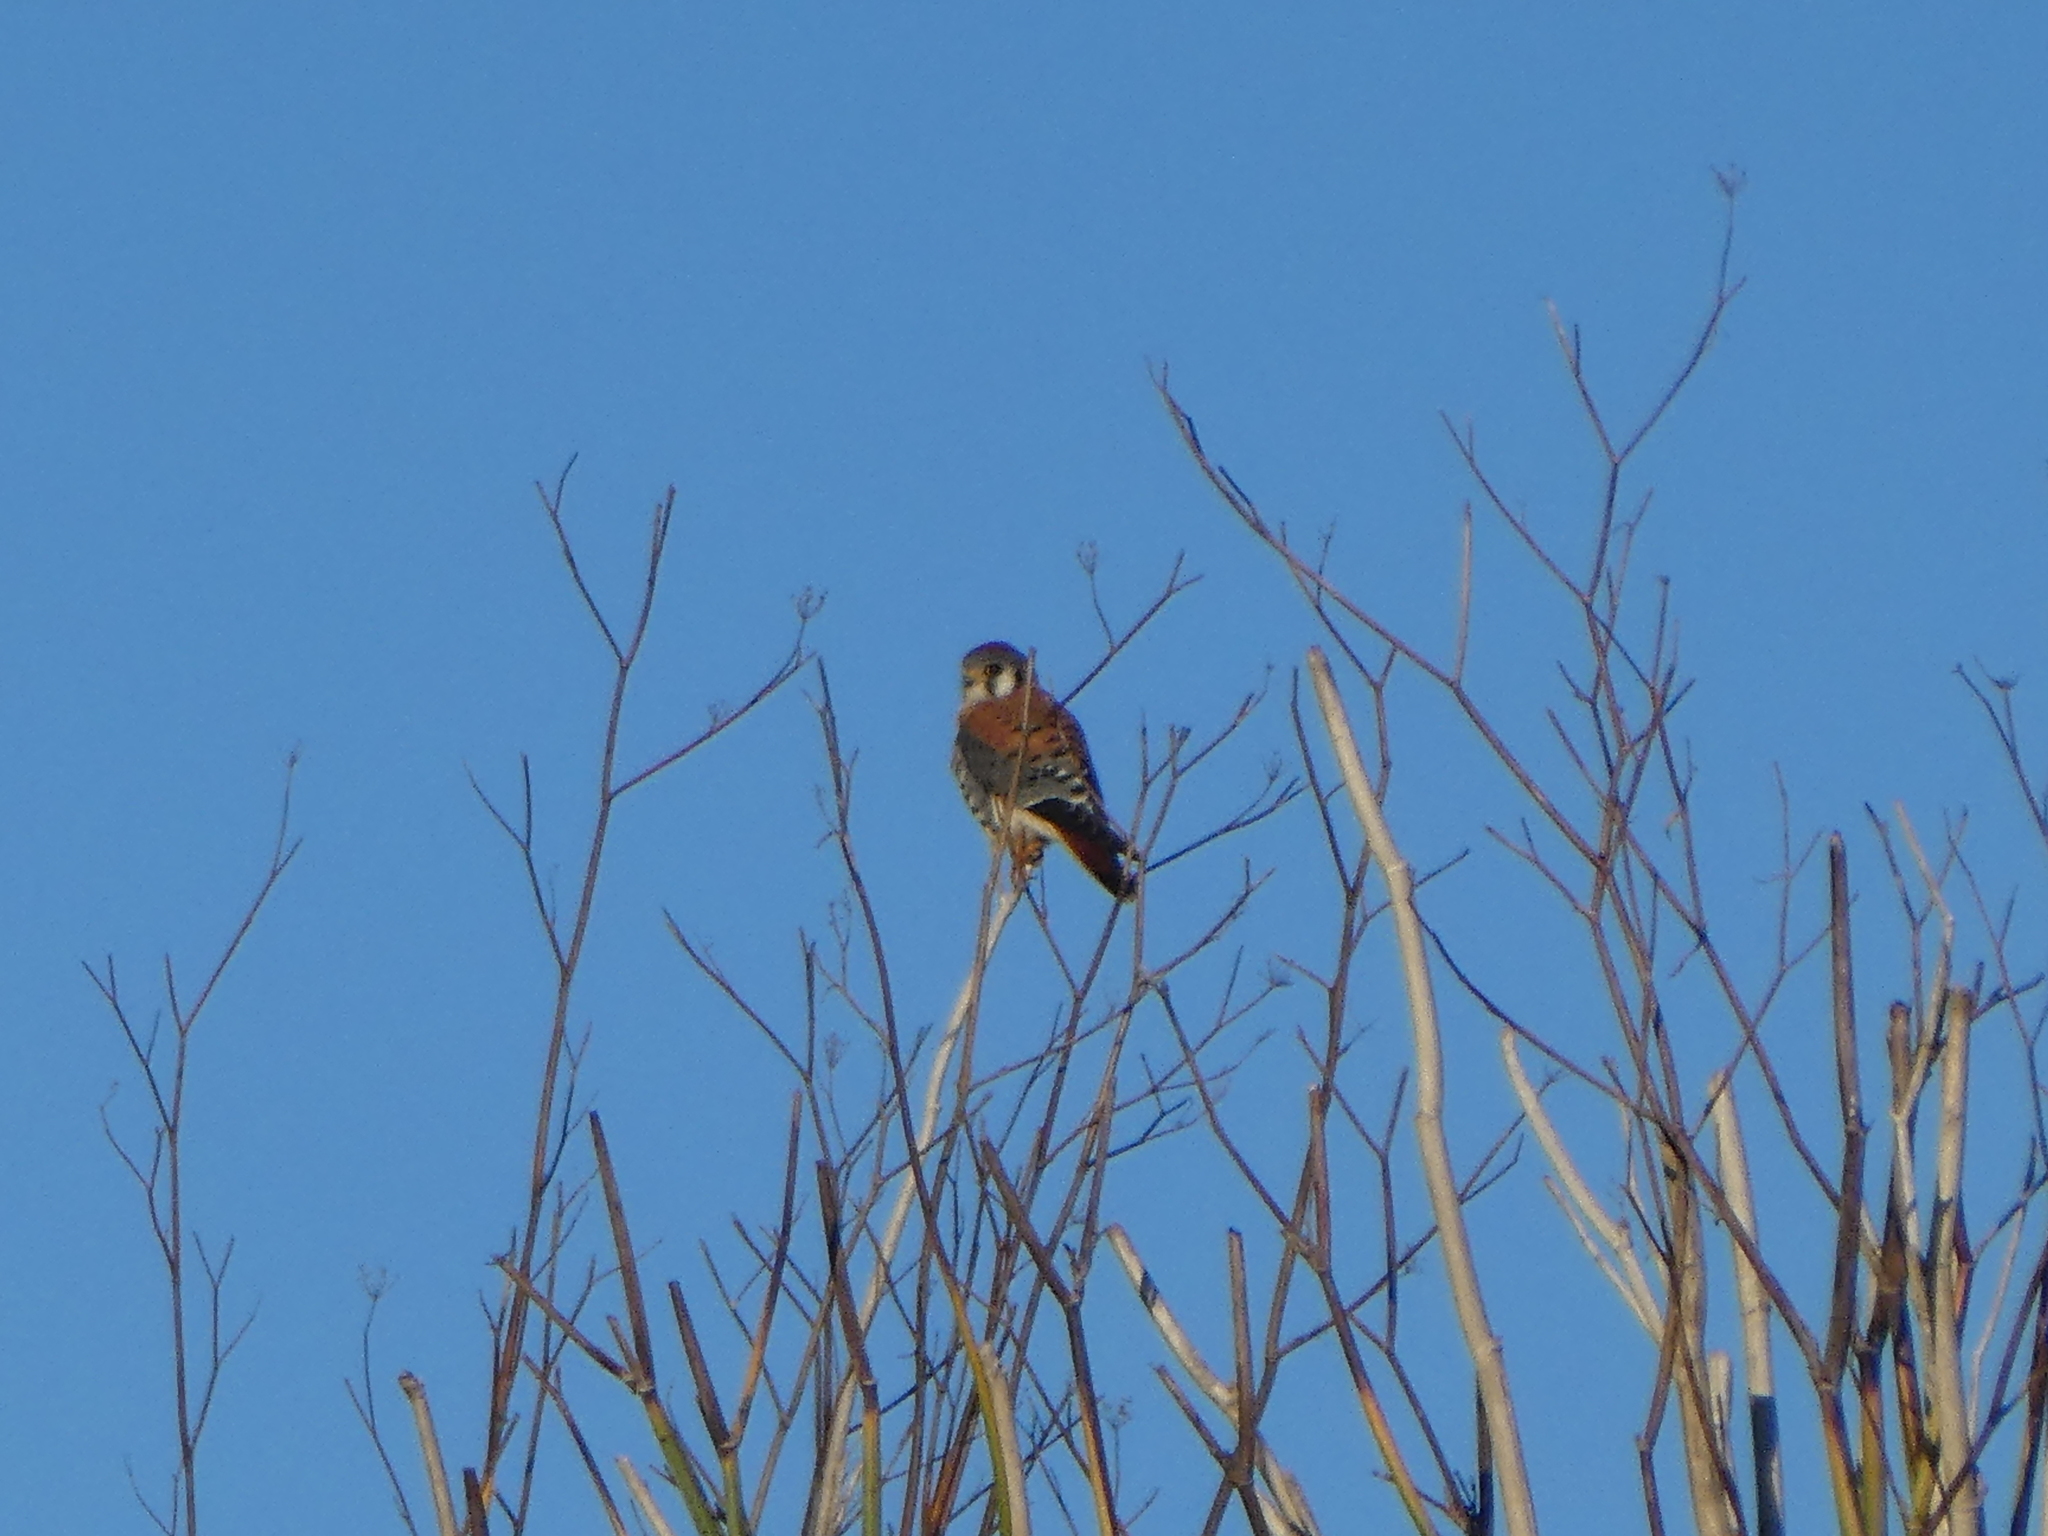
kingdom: Animalia
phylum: Chordata
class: Aves
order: Falconiformes
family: Falconidae
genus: Falco
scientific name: Falco sparverius
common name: American kestrel
